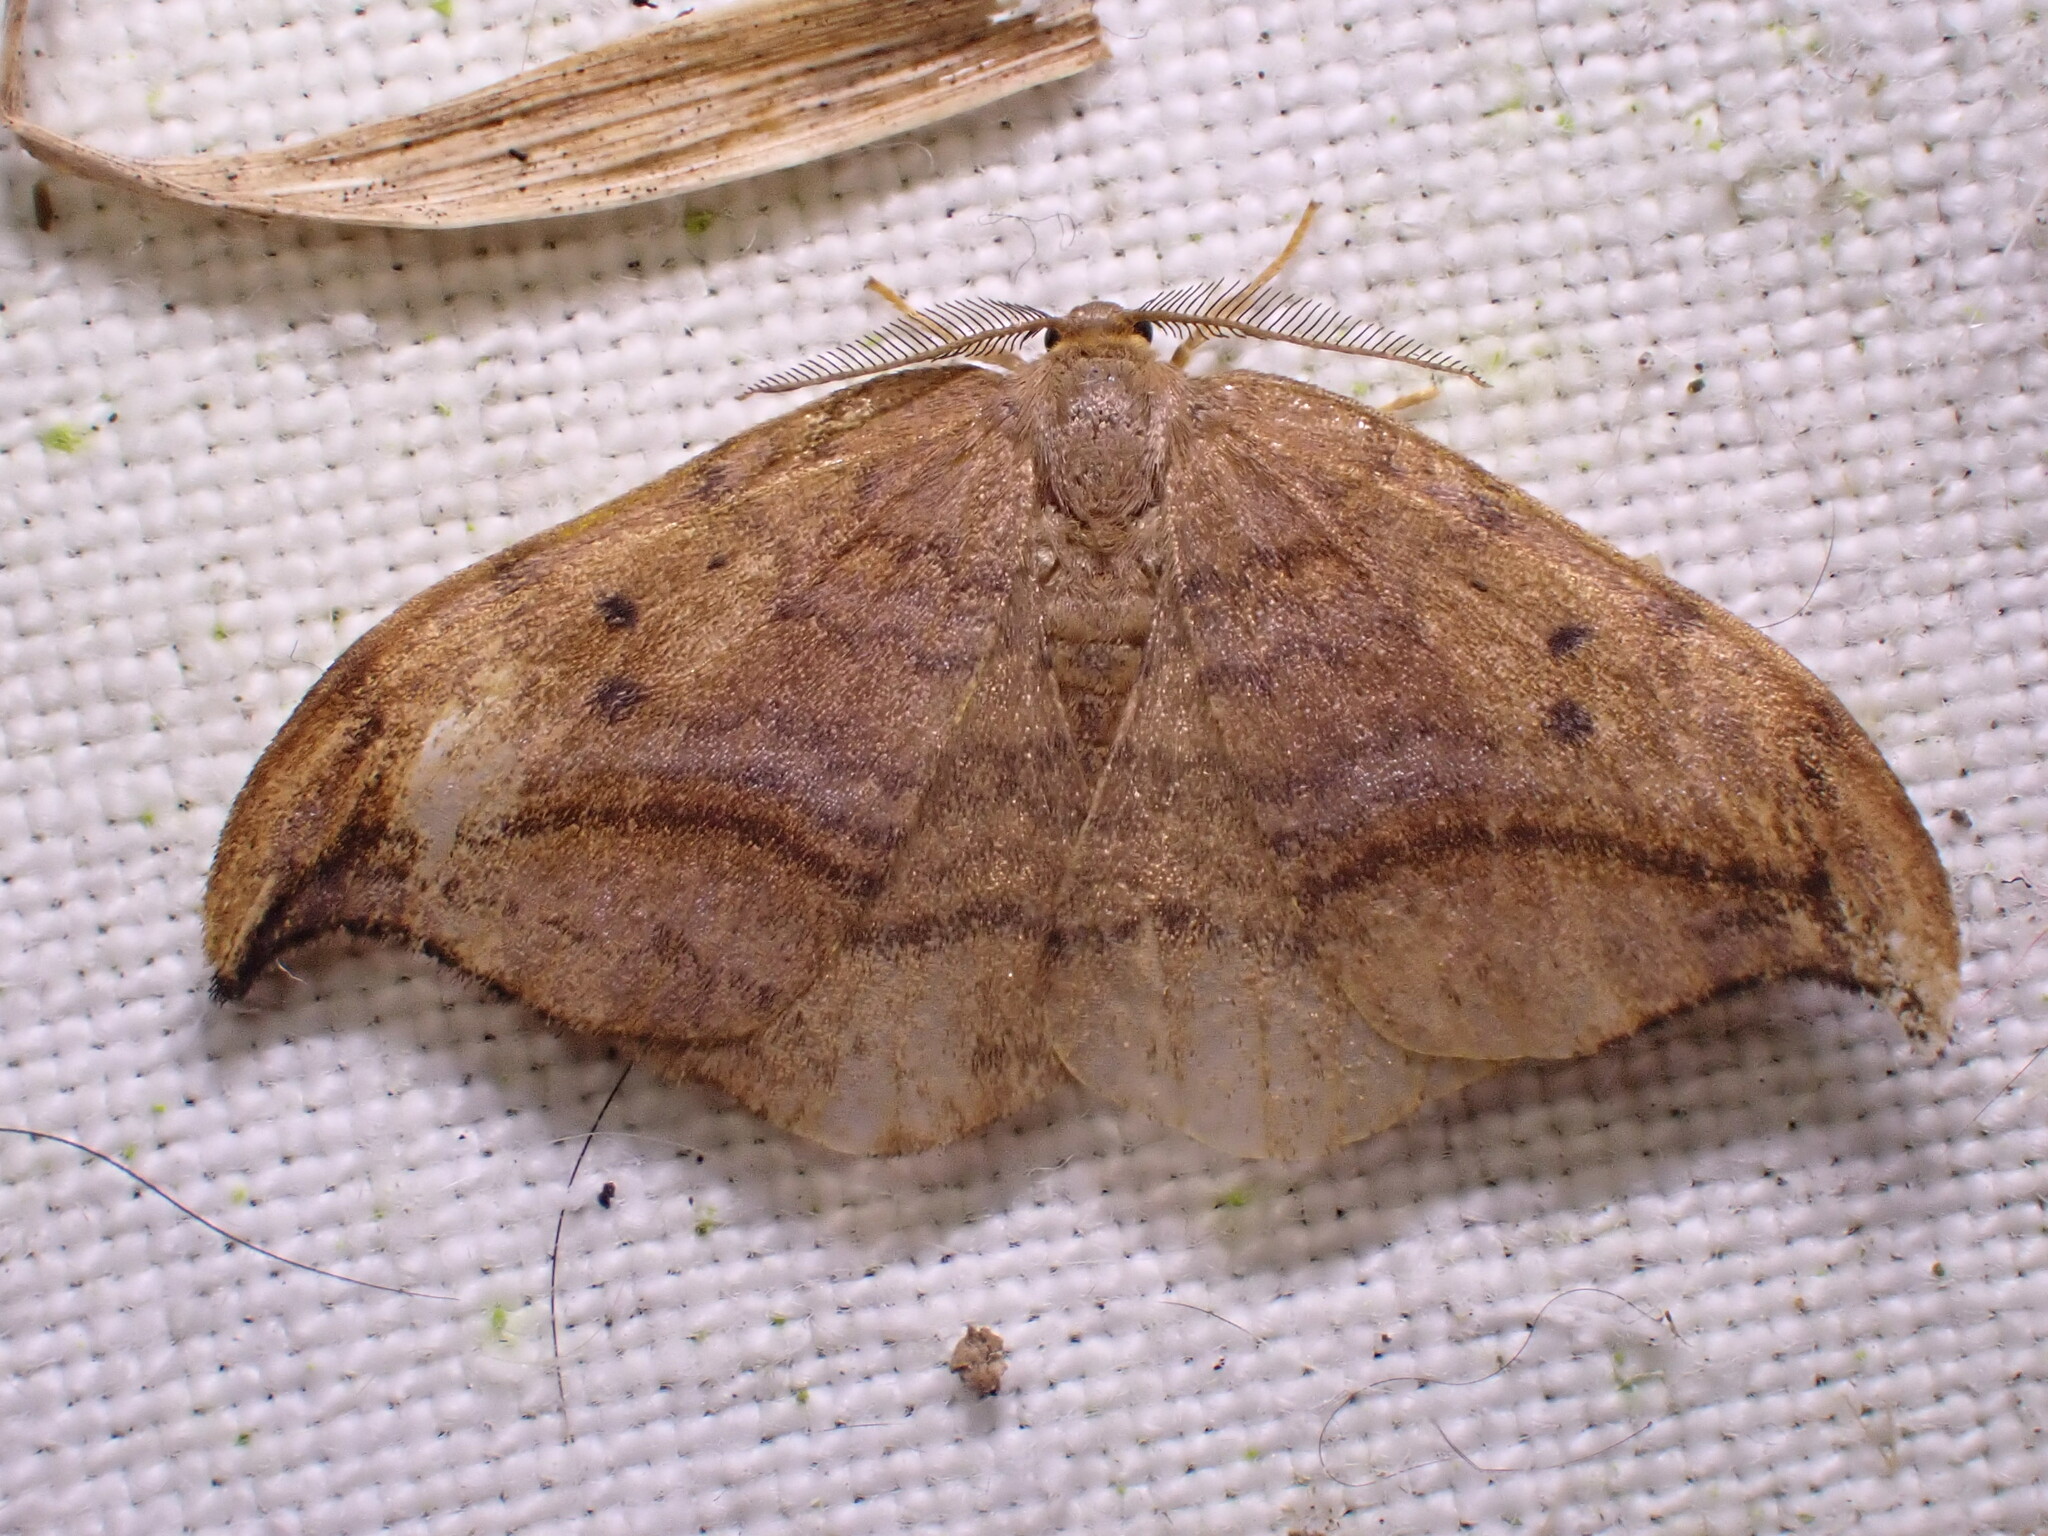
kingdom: Animalia
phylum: Arthropoda
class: Insecta
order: Lepidoptera
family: Drepanidae
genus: Drepana
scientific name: Drepana curvatula
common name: Dusky hook-tip
